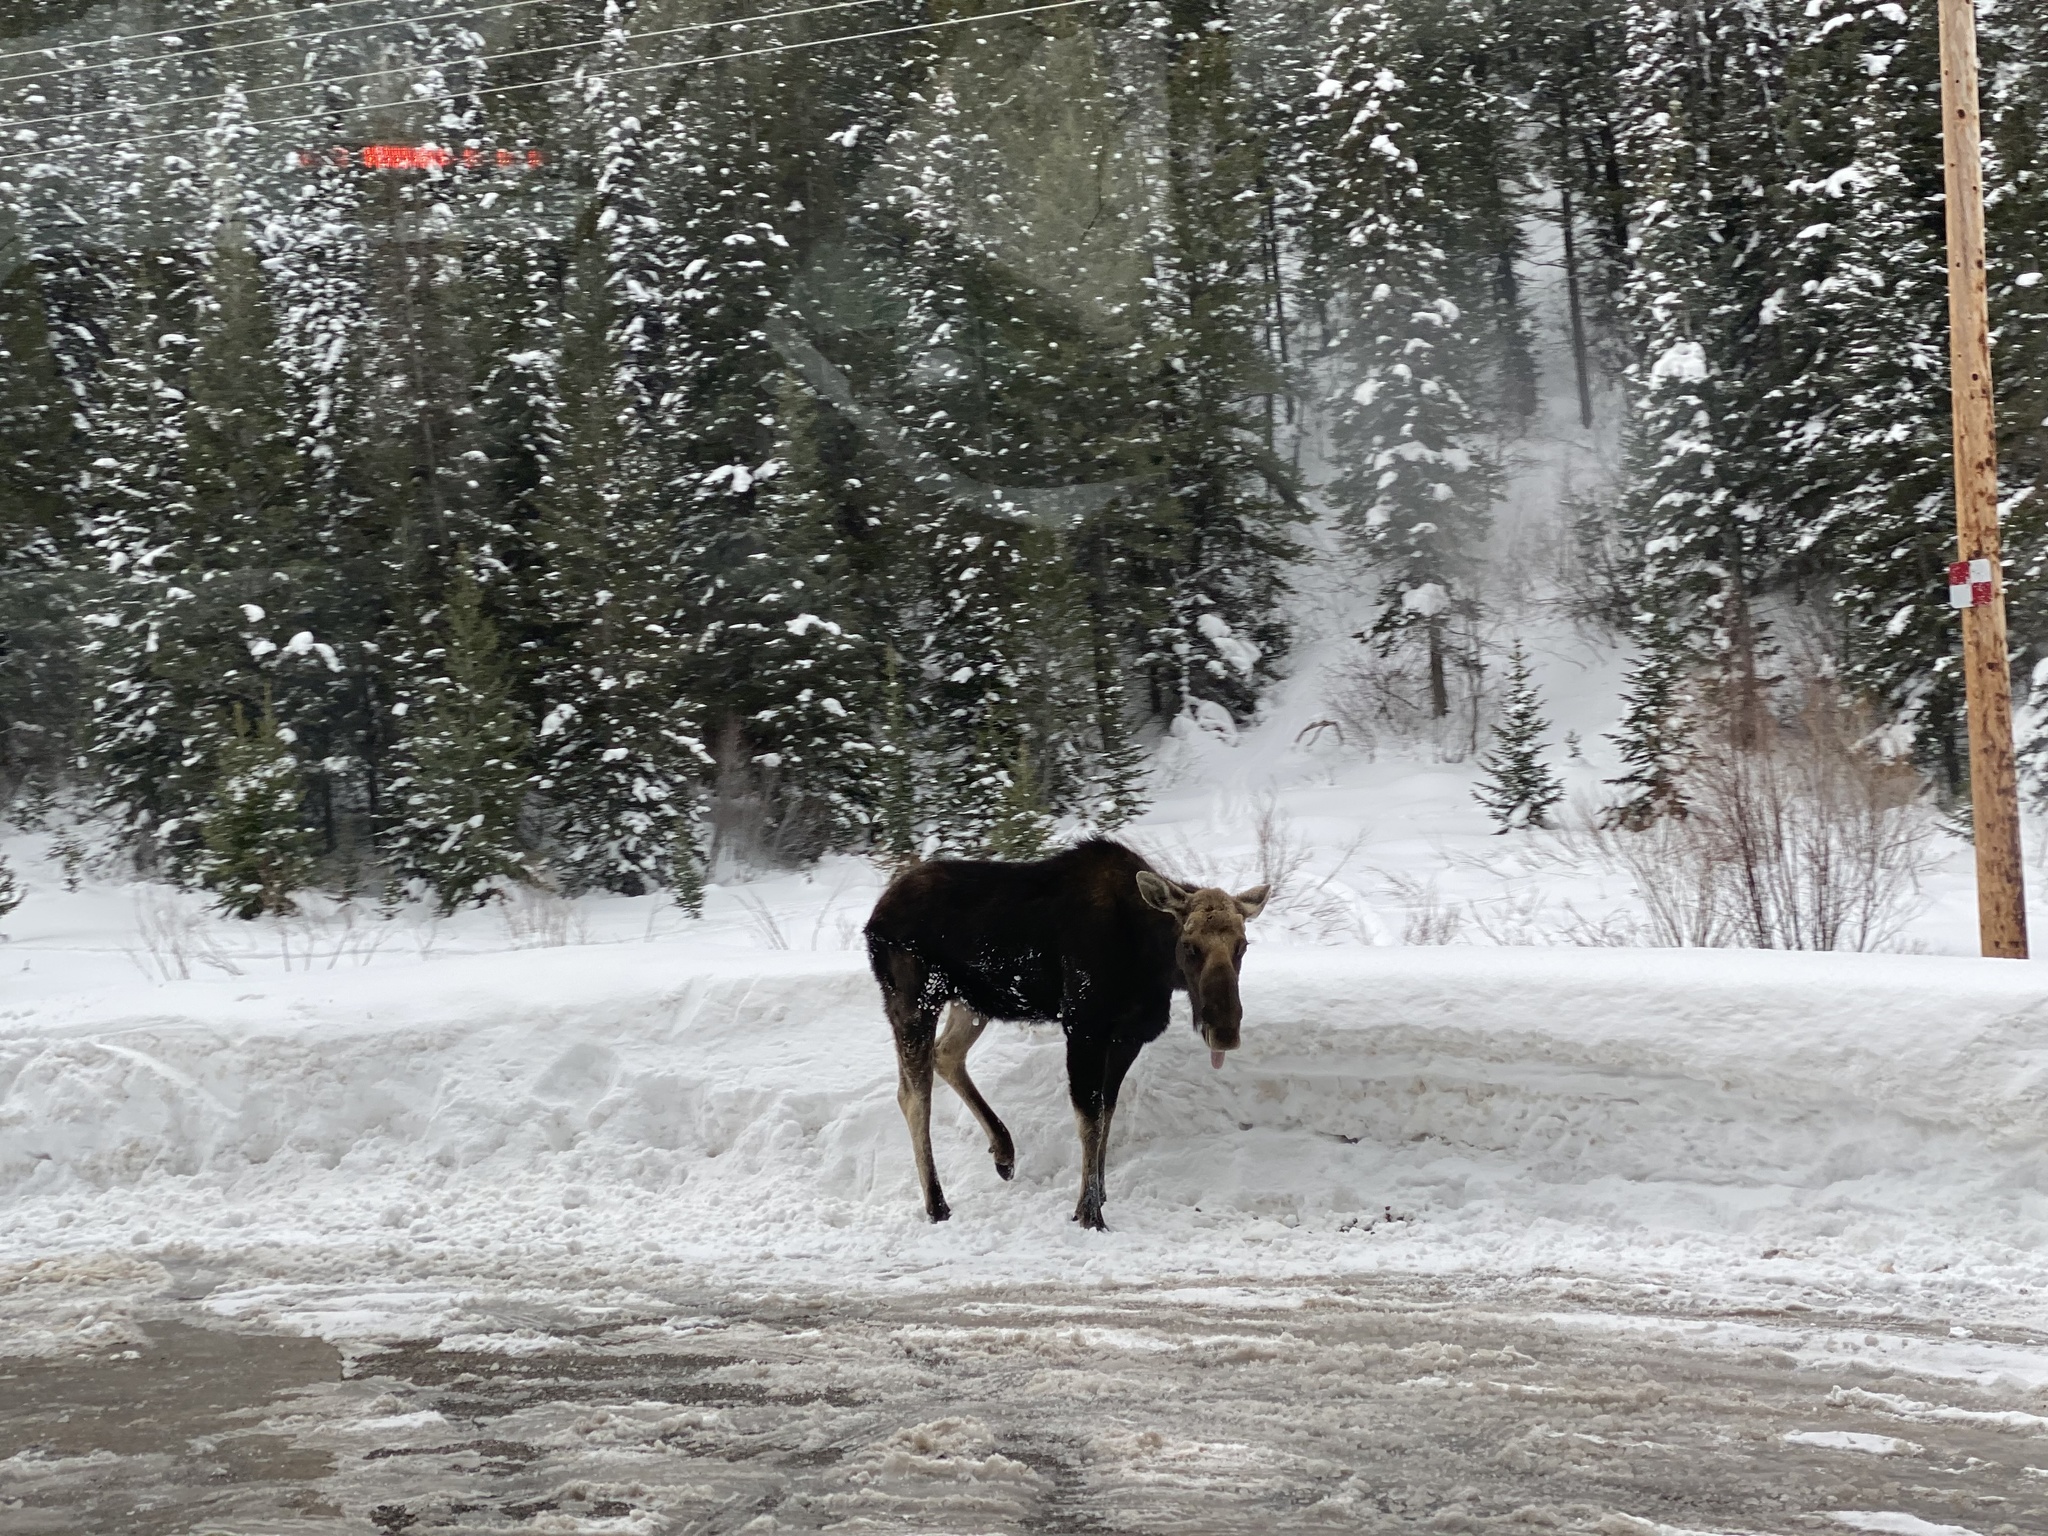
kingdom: Animalia
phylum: Chordata
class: Mammalia
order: Artiodactyla
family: Cervidae
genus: Alces
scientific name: Alces alces
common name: Moose
